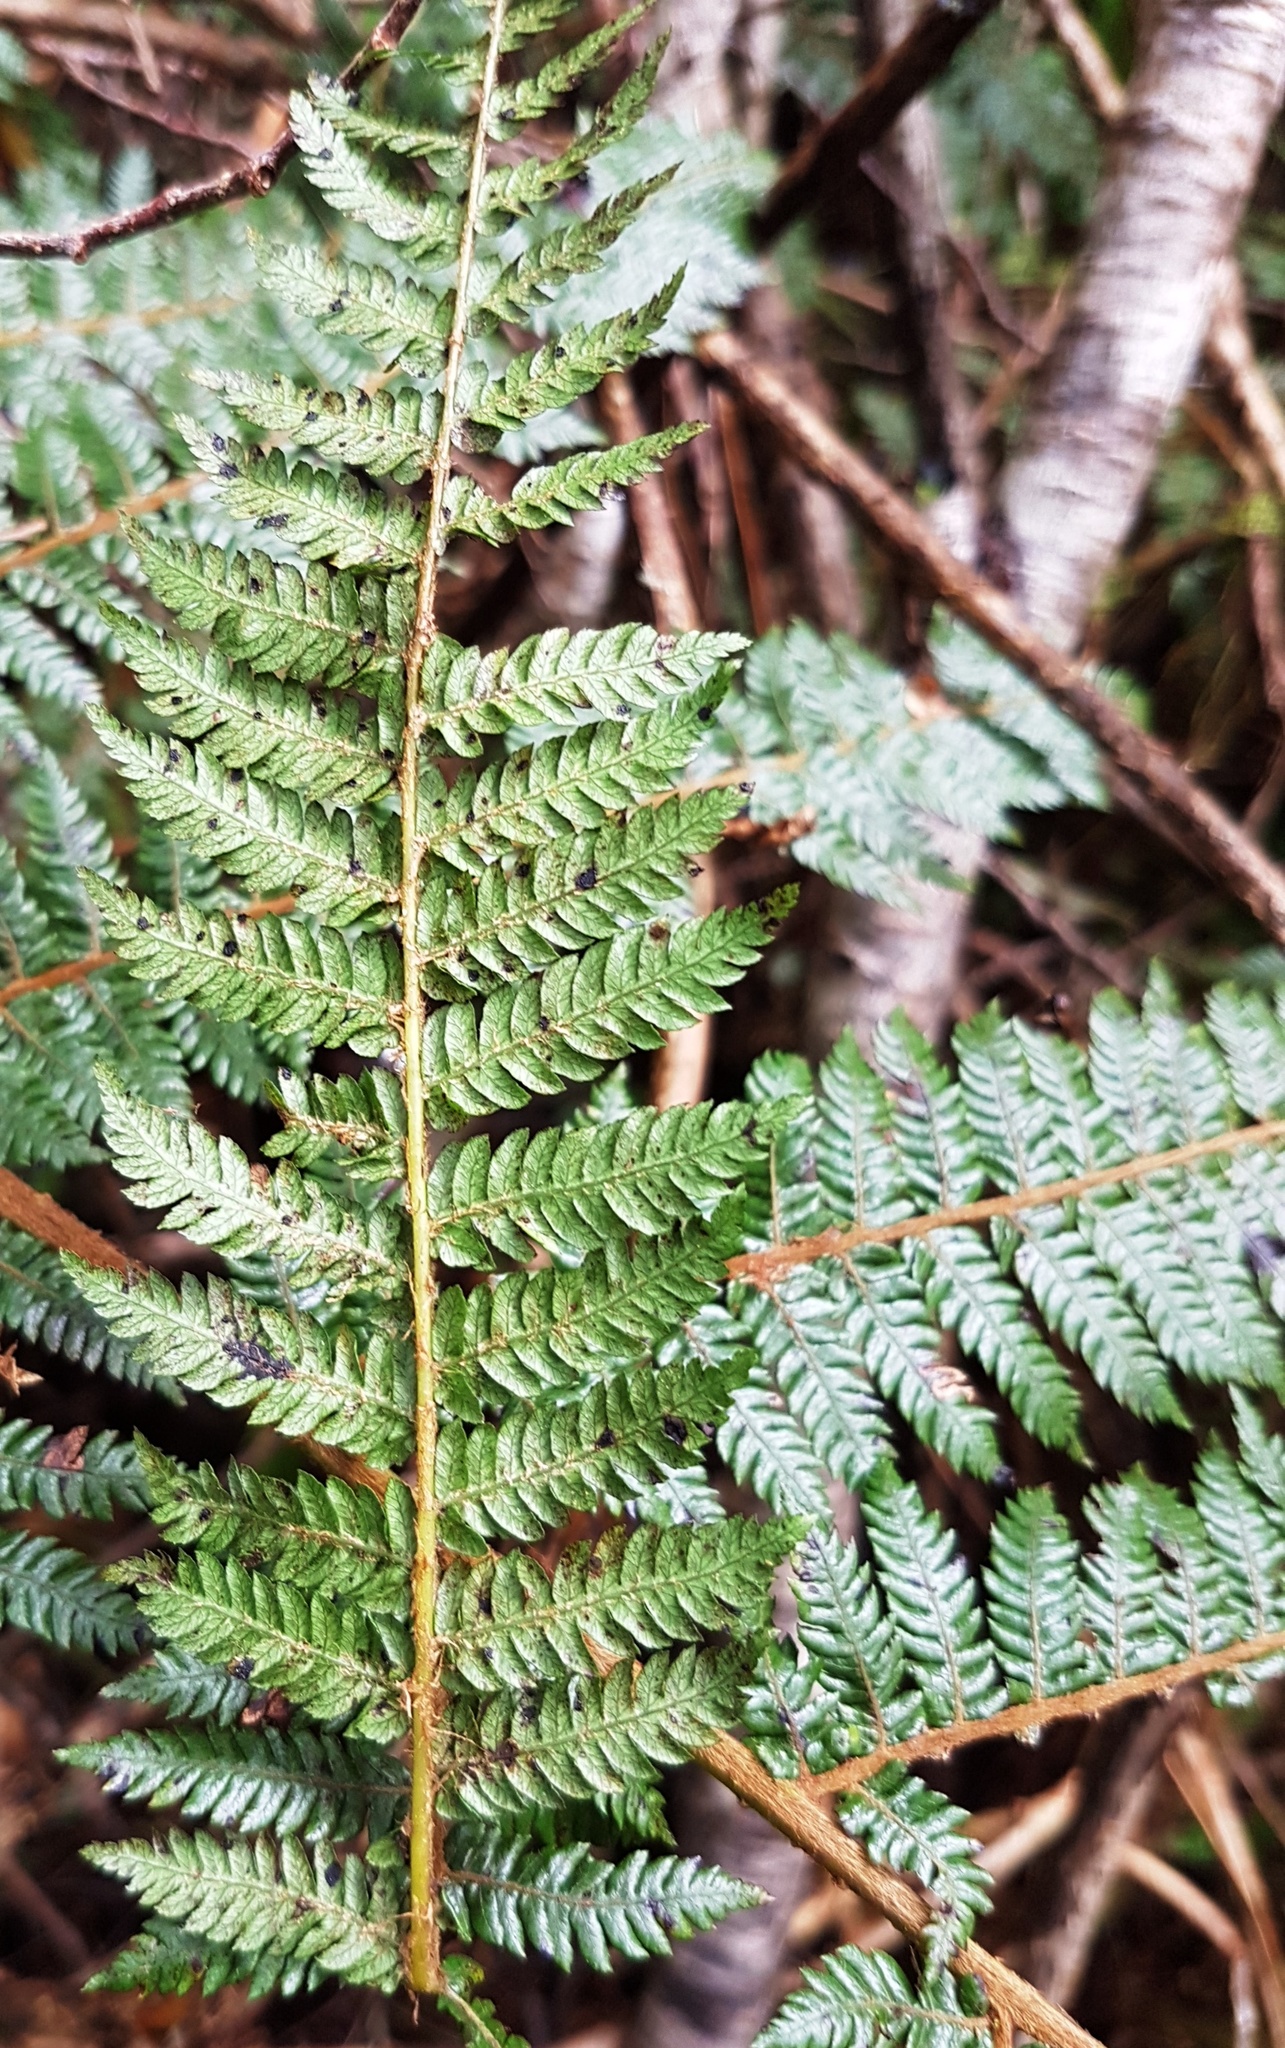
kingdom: Plantae
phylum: Tracheophyta
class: Polypodiopsida
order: Cyatheales
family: Cyatheaceae
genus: Alsophila
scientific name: Alsophila colensoi
